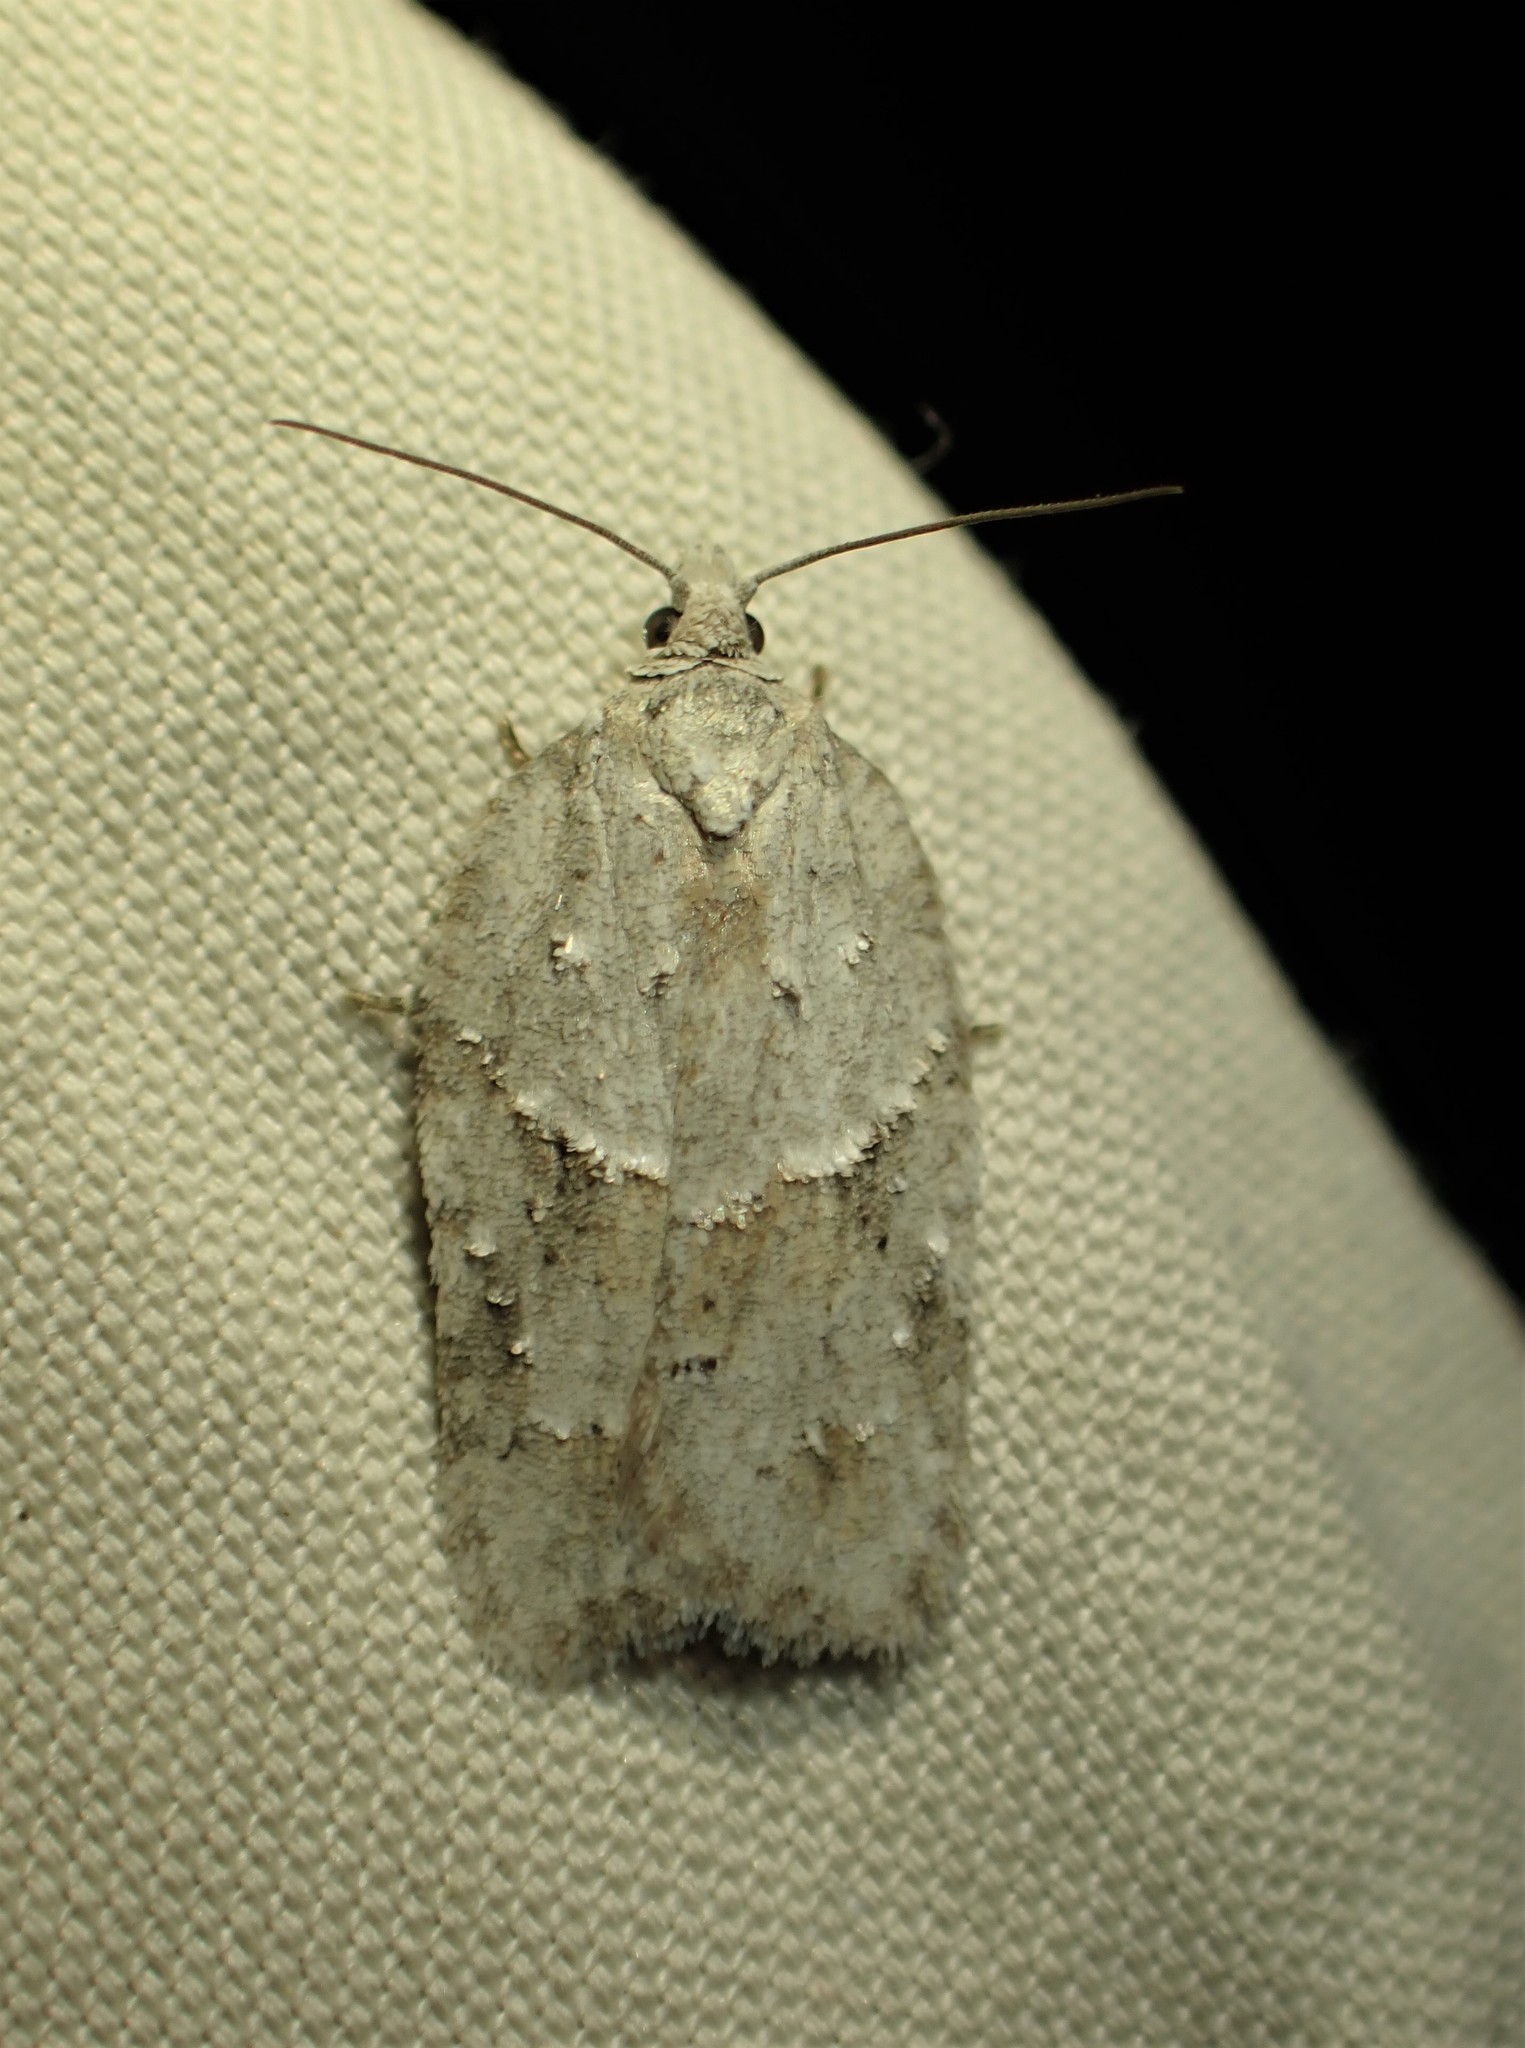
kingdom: Animalia
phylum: Arthropoda
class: Insecta
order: Lepidoptera
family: Tortricidae
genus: Acleris
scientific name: Acleris placidana
